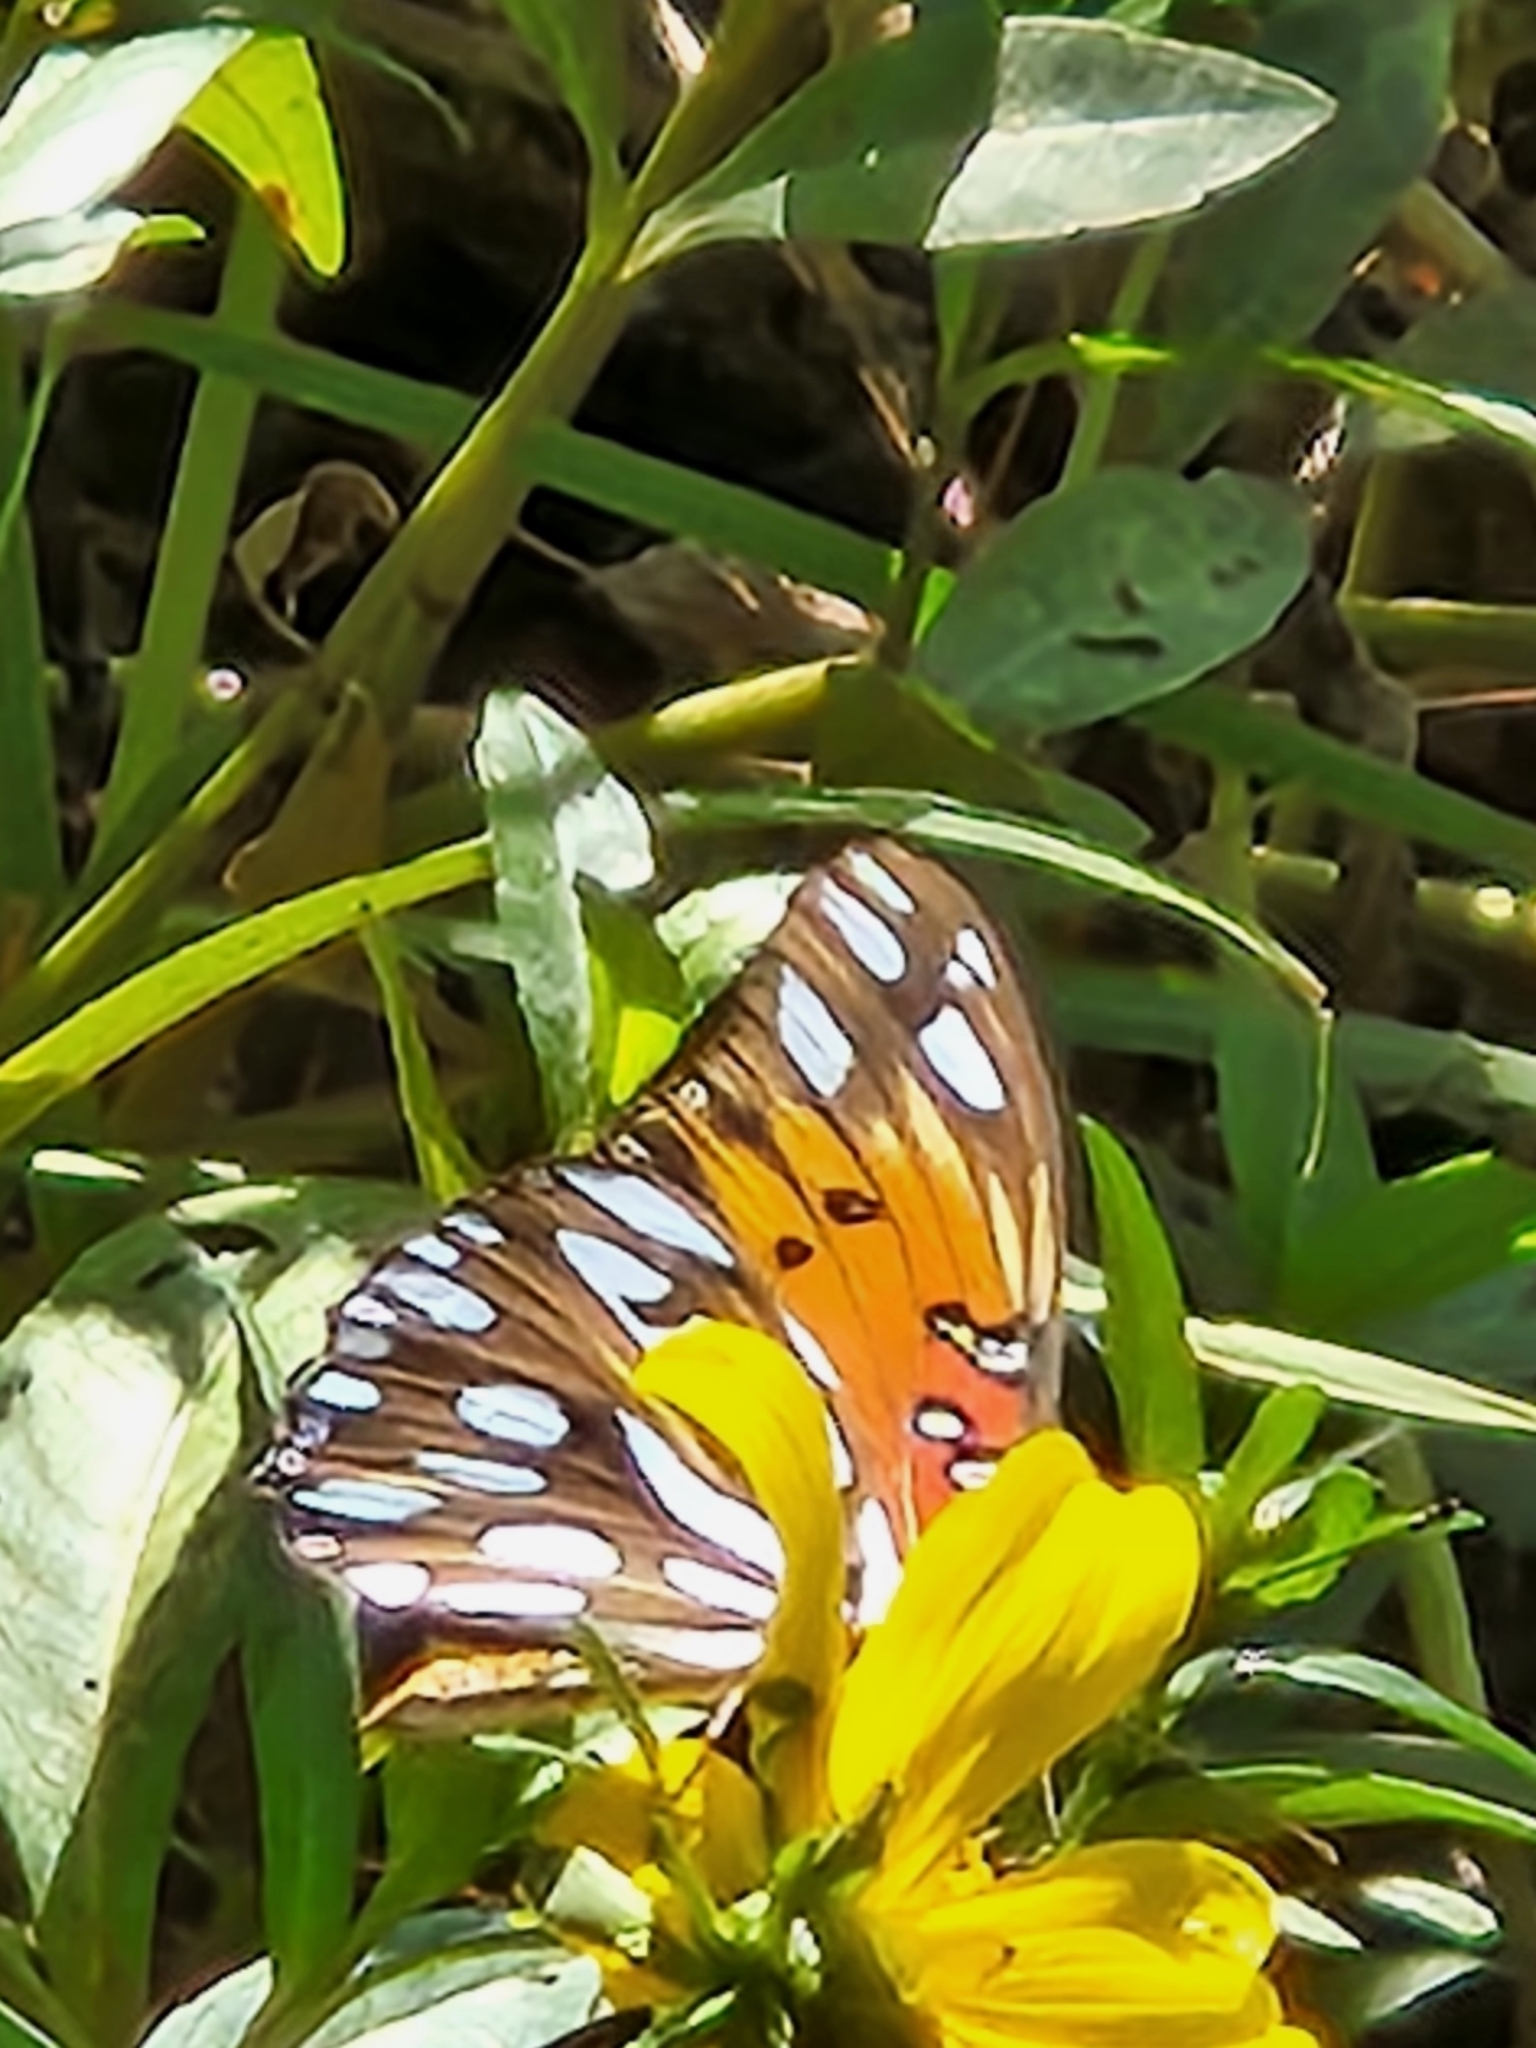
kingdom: Animalia
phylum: Arthropoda
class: Insecta
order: Lepidoptera
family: Nymphalidae
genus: Dione
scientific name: Dione vanillae
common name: Gulf fritillary
